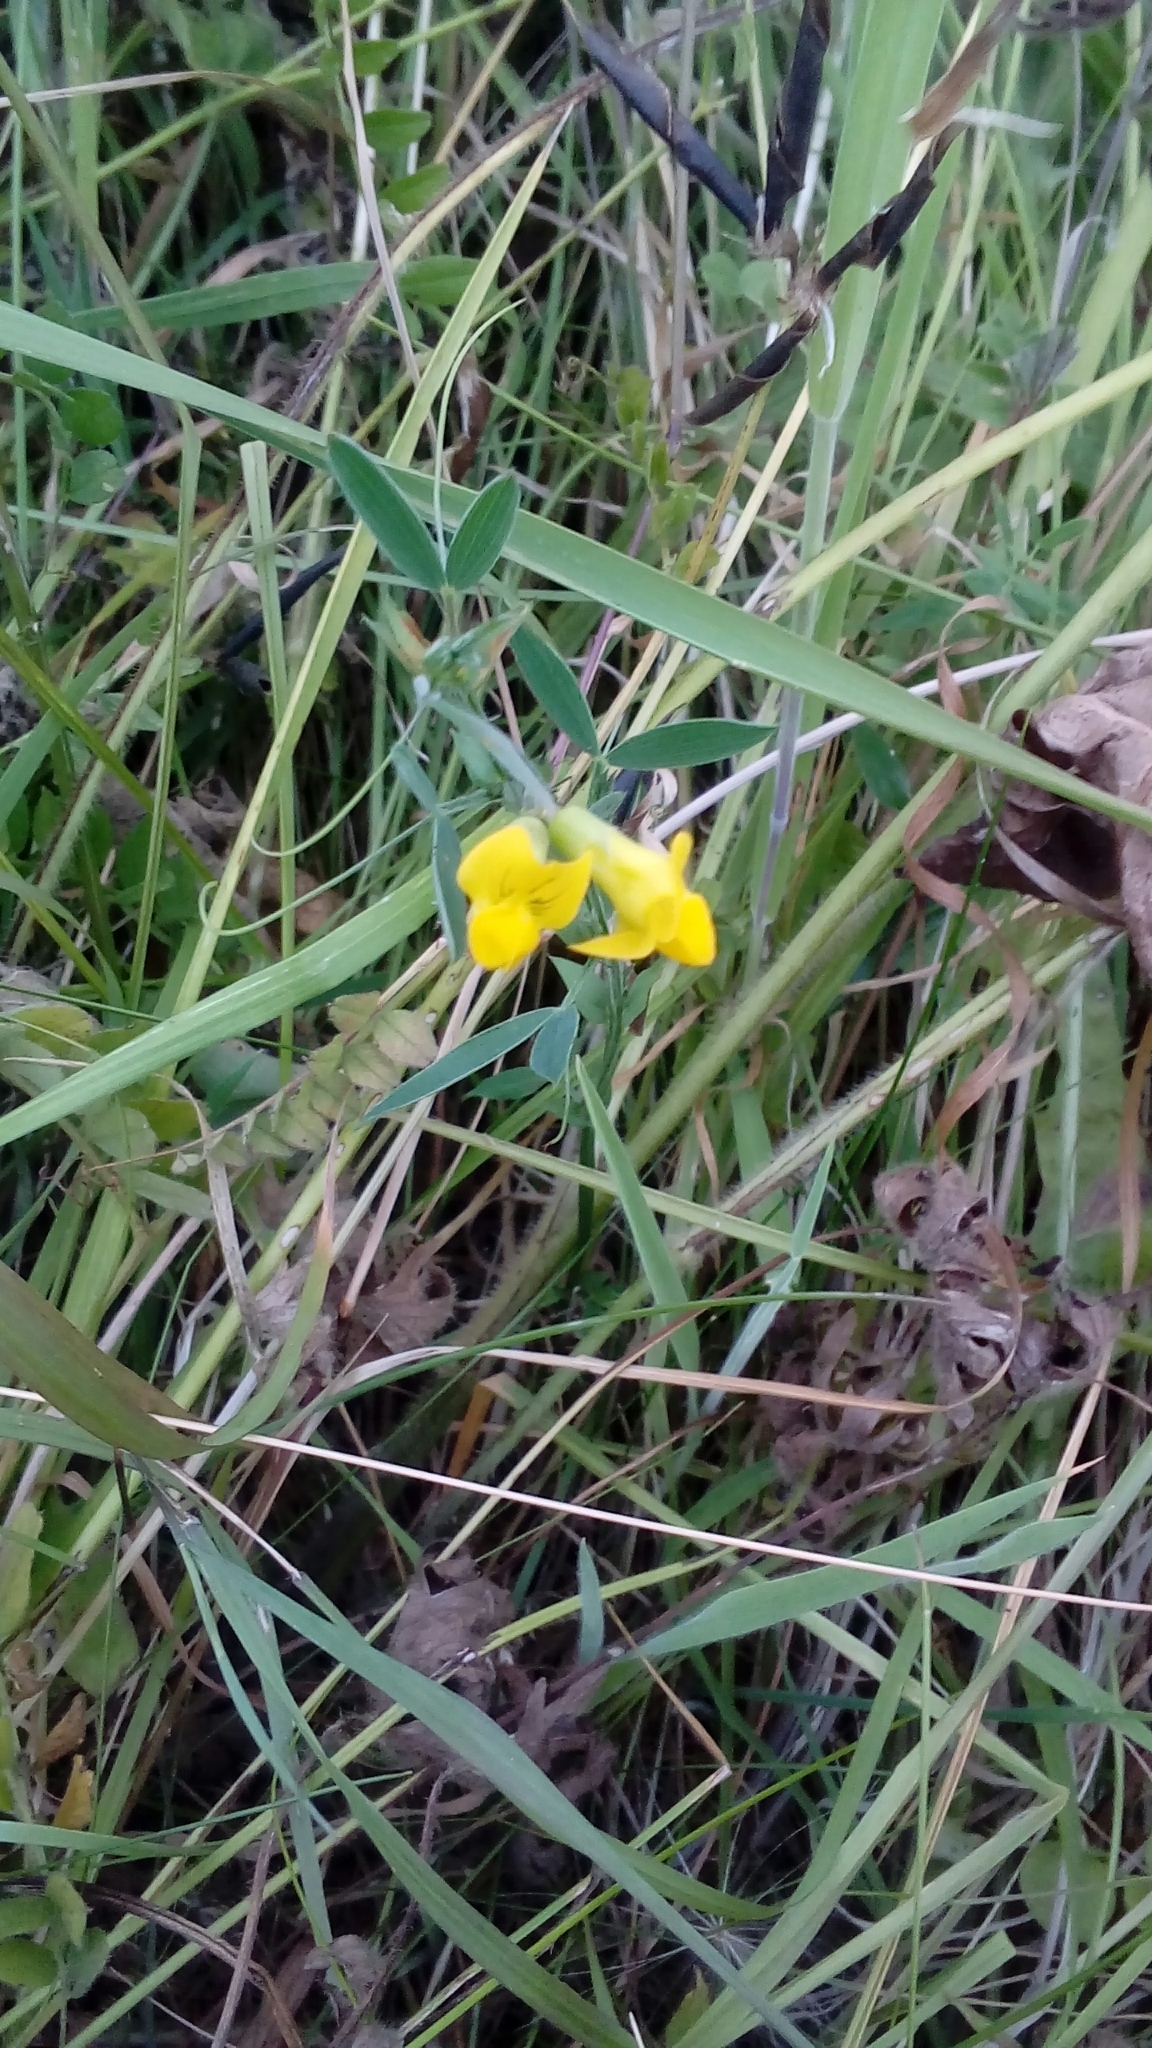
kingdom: Plantae
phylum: Tracheophyta
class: Magnoliopsida
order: Fabales
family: Fabaceae
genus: Lathyrus
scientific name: Lathyrus pratensis
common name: Meadow vetchling
